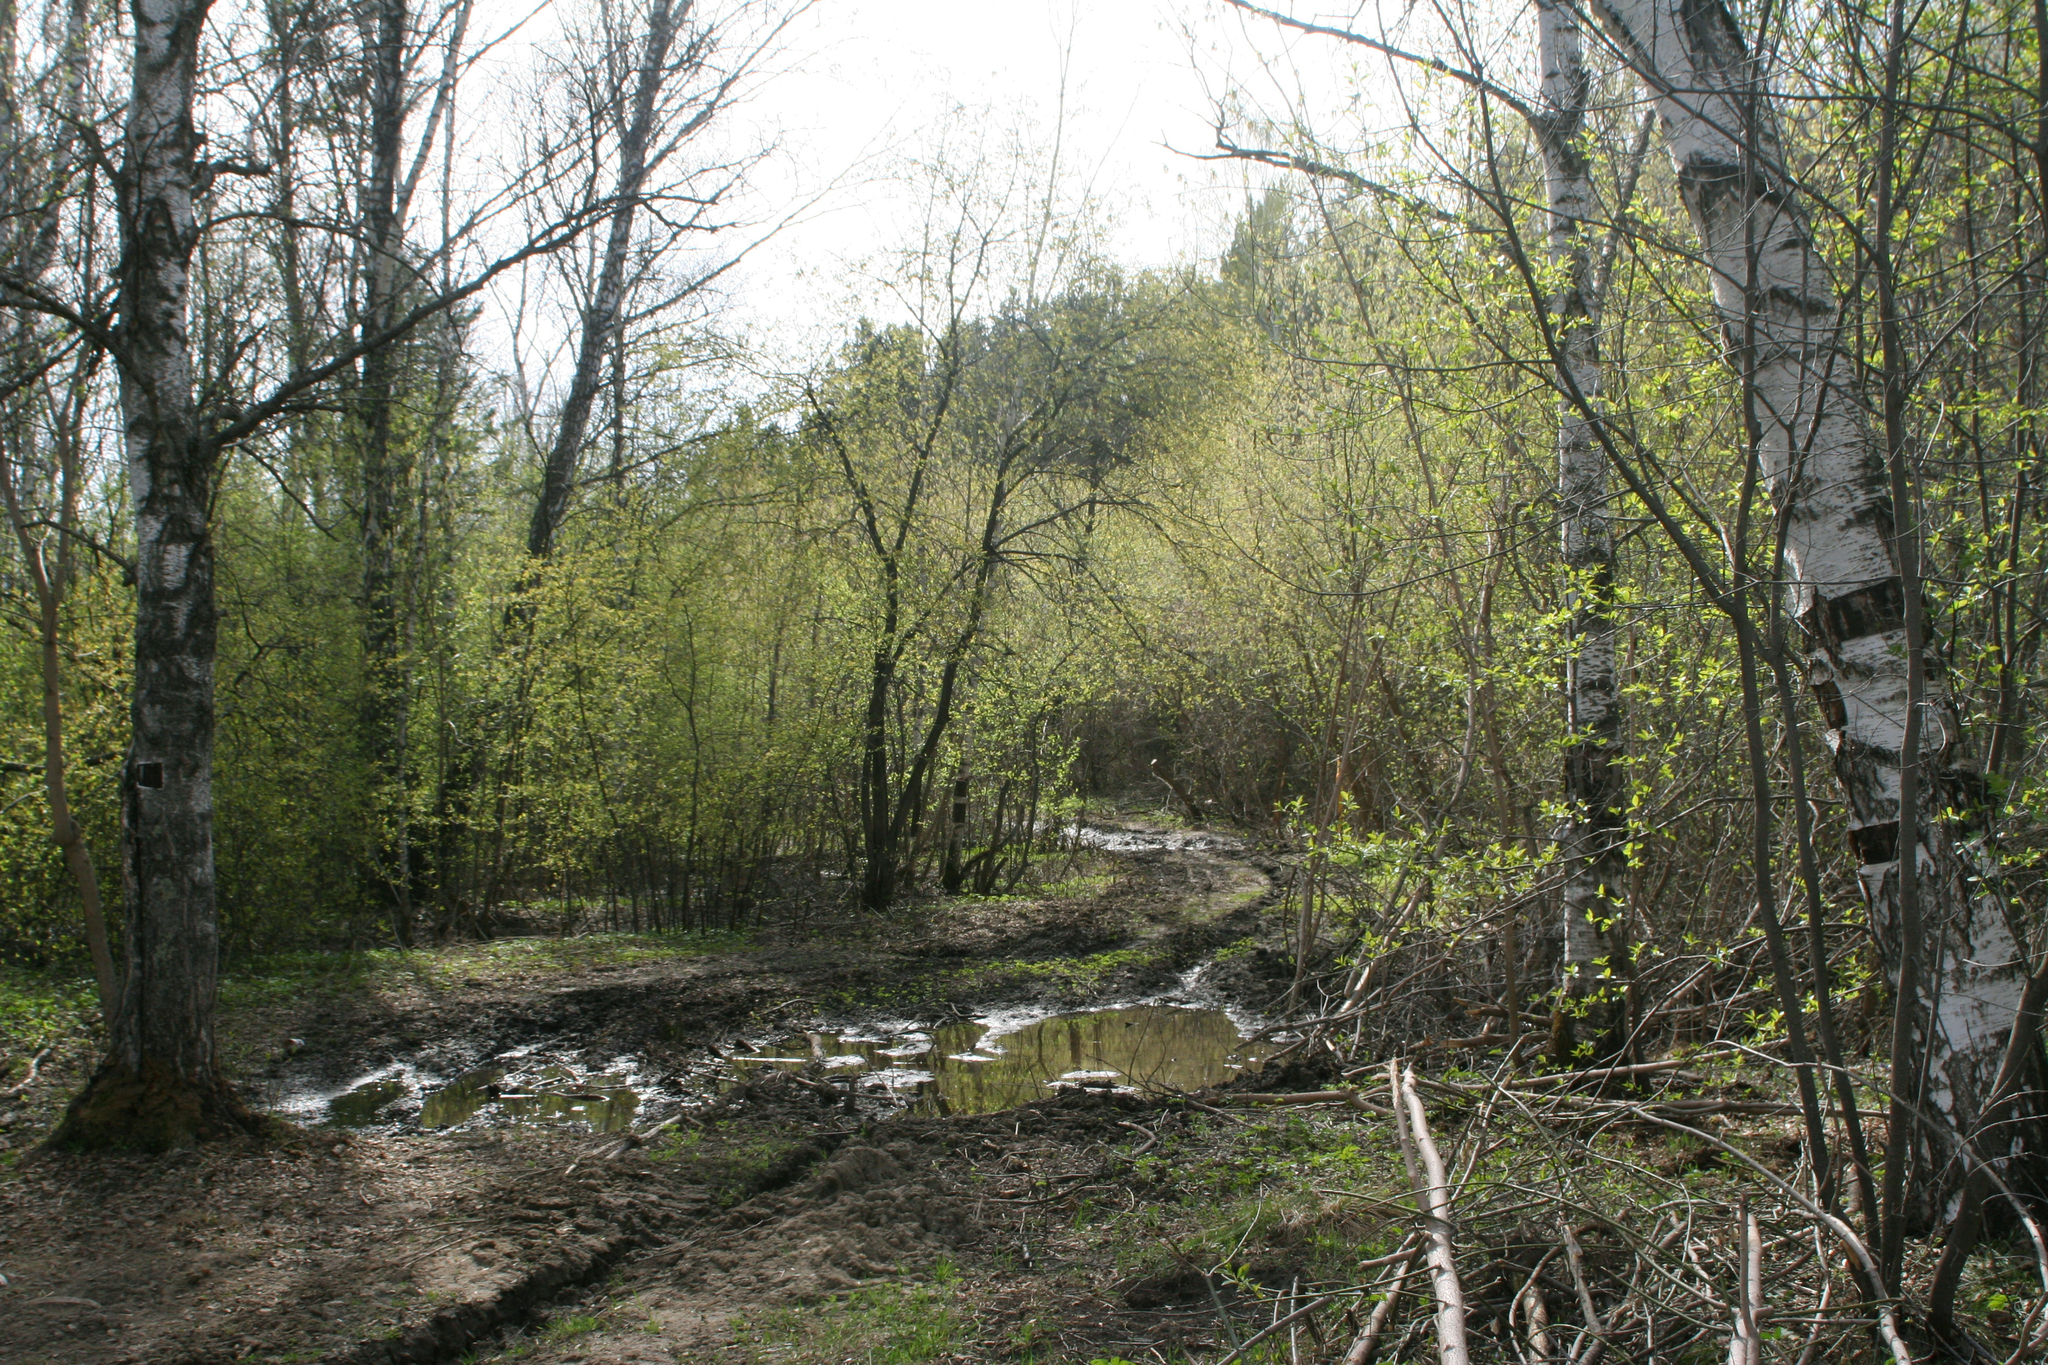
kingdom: Plantae
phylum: Tracheophyta
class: Magnoliopsida
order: Fagales
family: Betulaceae
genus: Betula
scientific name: Betula pendula
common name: Silver birch
